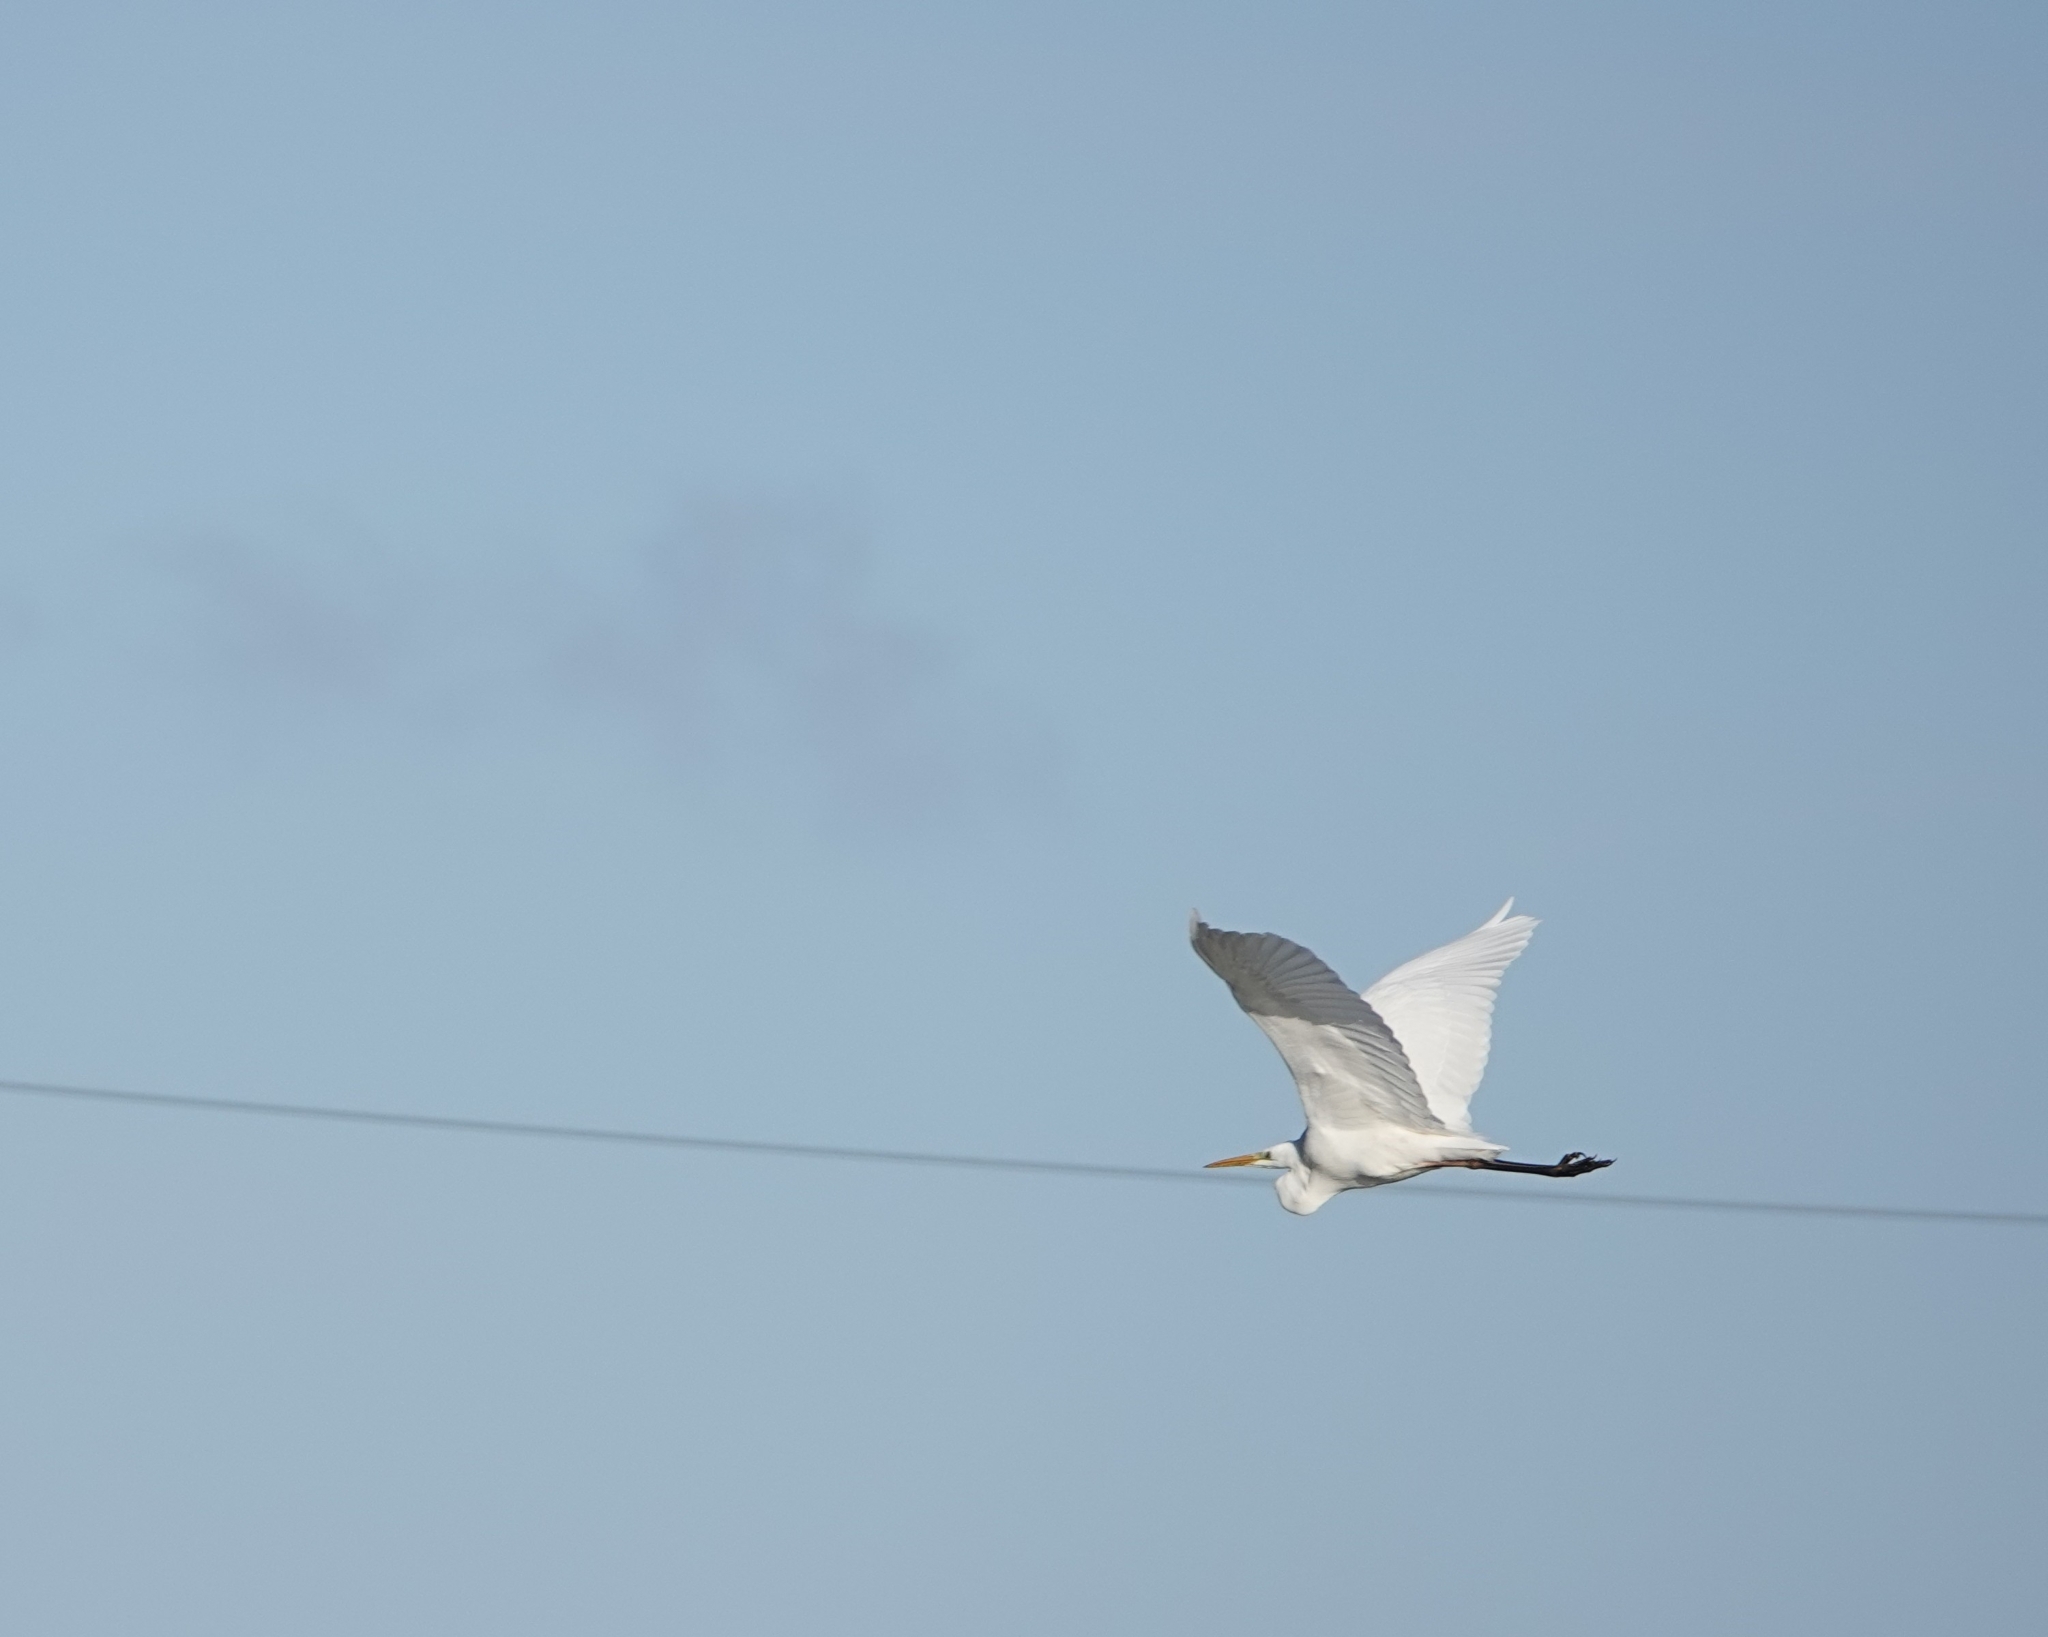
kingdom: Animalia
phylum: Chordata
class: Aves
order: Pelecaniformes
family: Ardeidae
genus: Ardea
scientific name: Ardea alba
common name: Great egret
